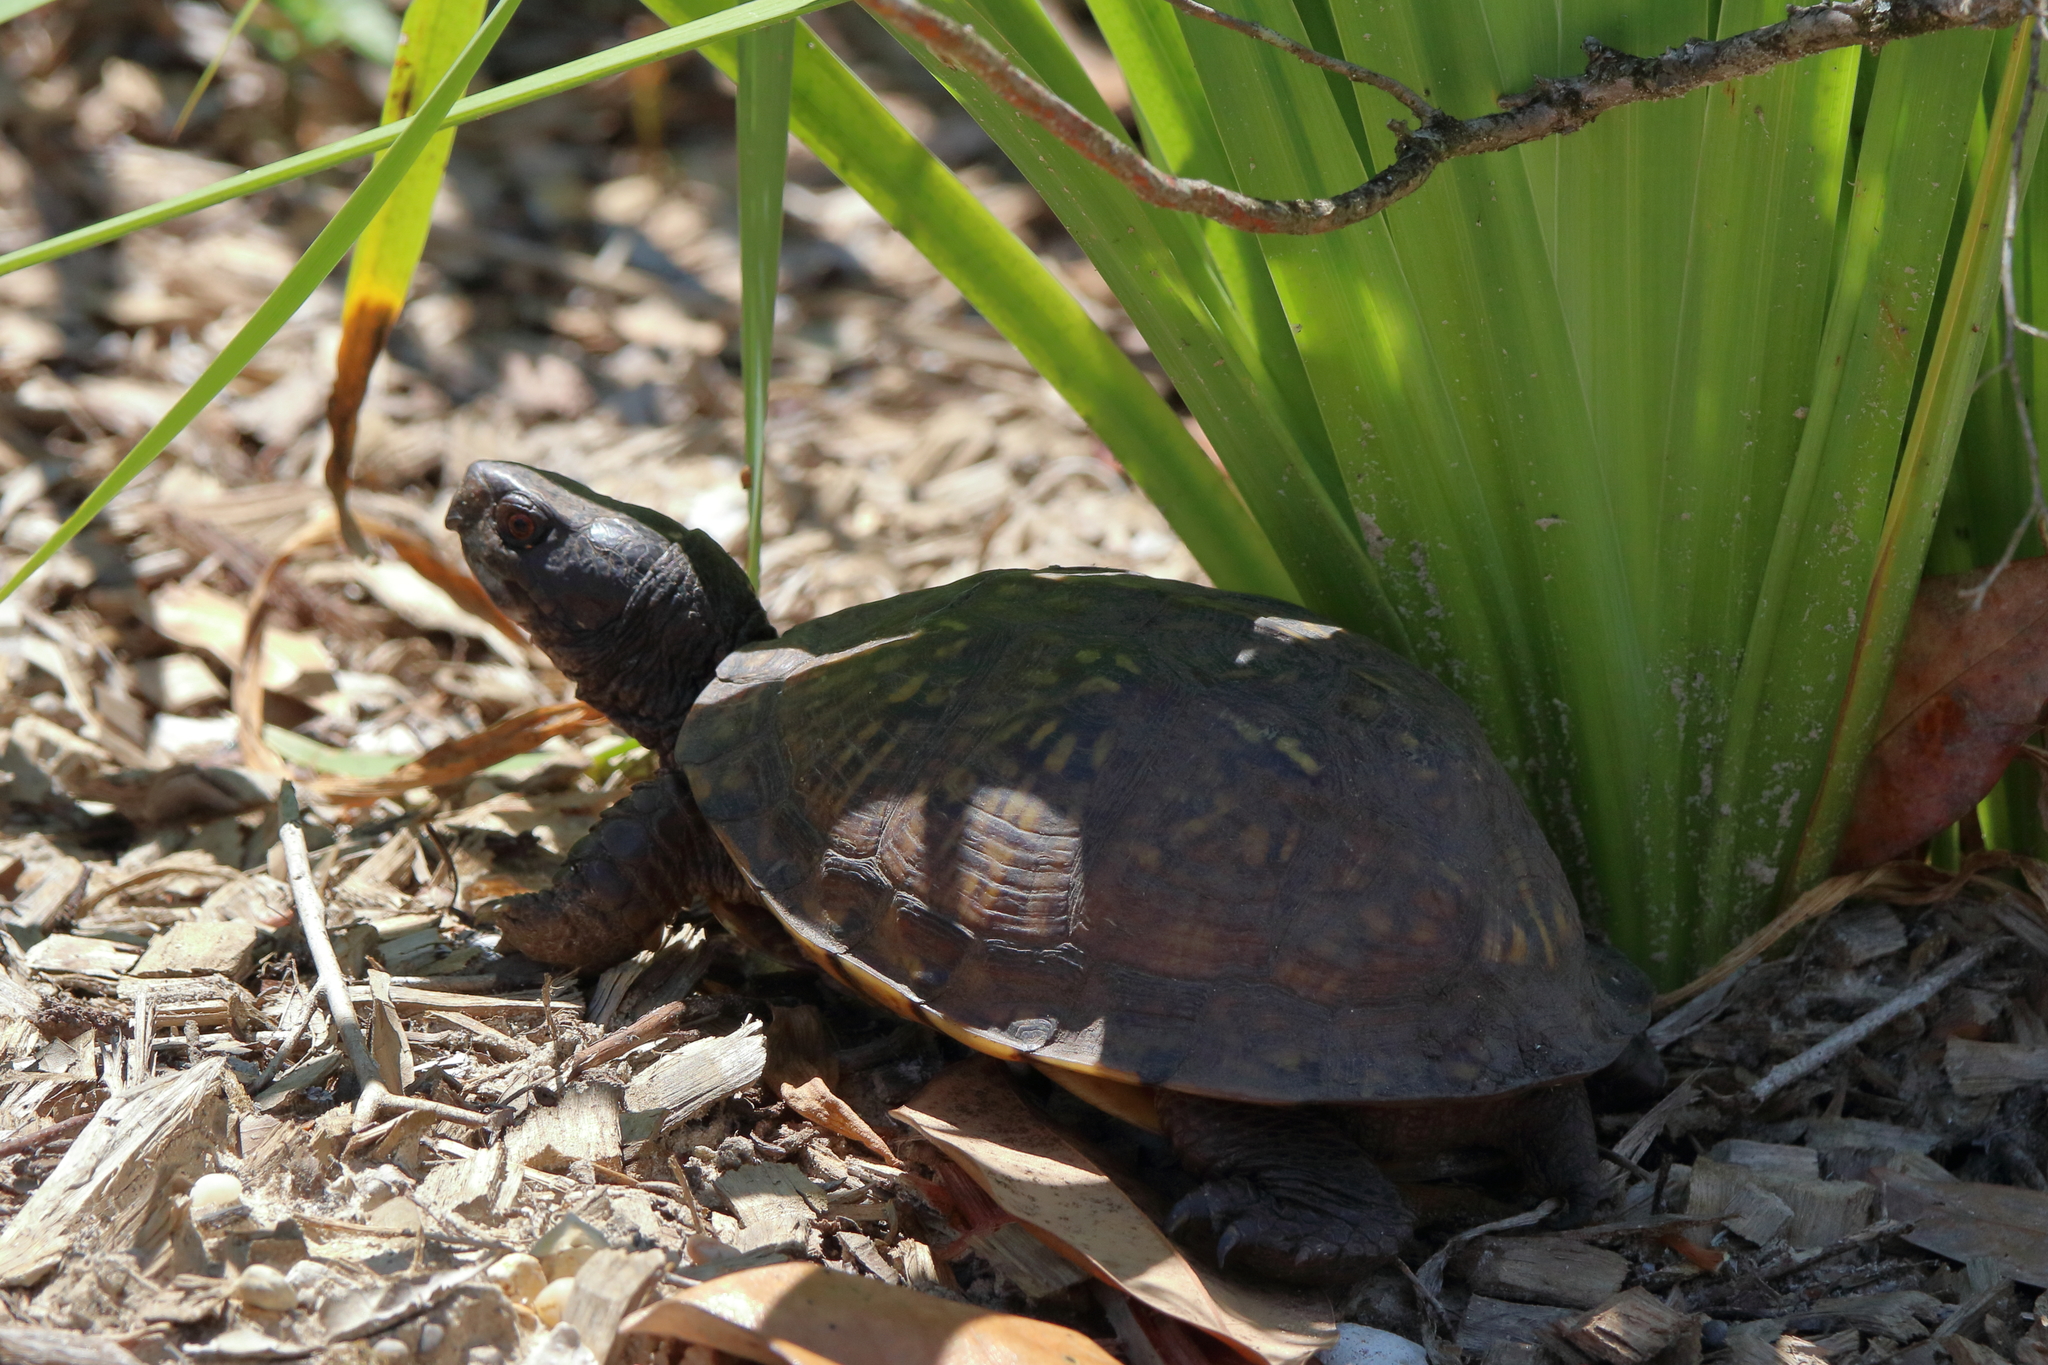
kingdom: Animalia
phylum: Chordata
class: Testudines
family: Emydidae
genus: Terrapene
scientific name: Terrapene carolina
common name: Common box turtle
